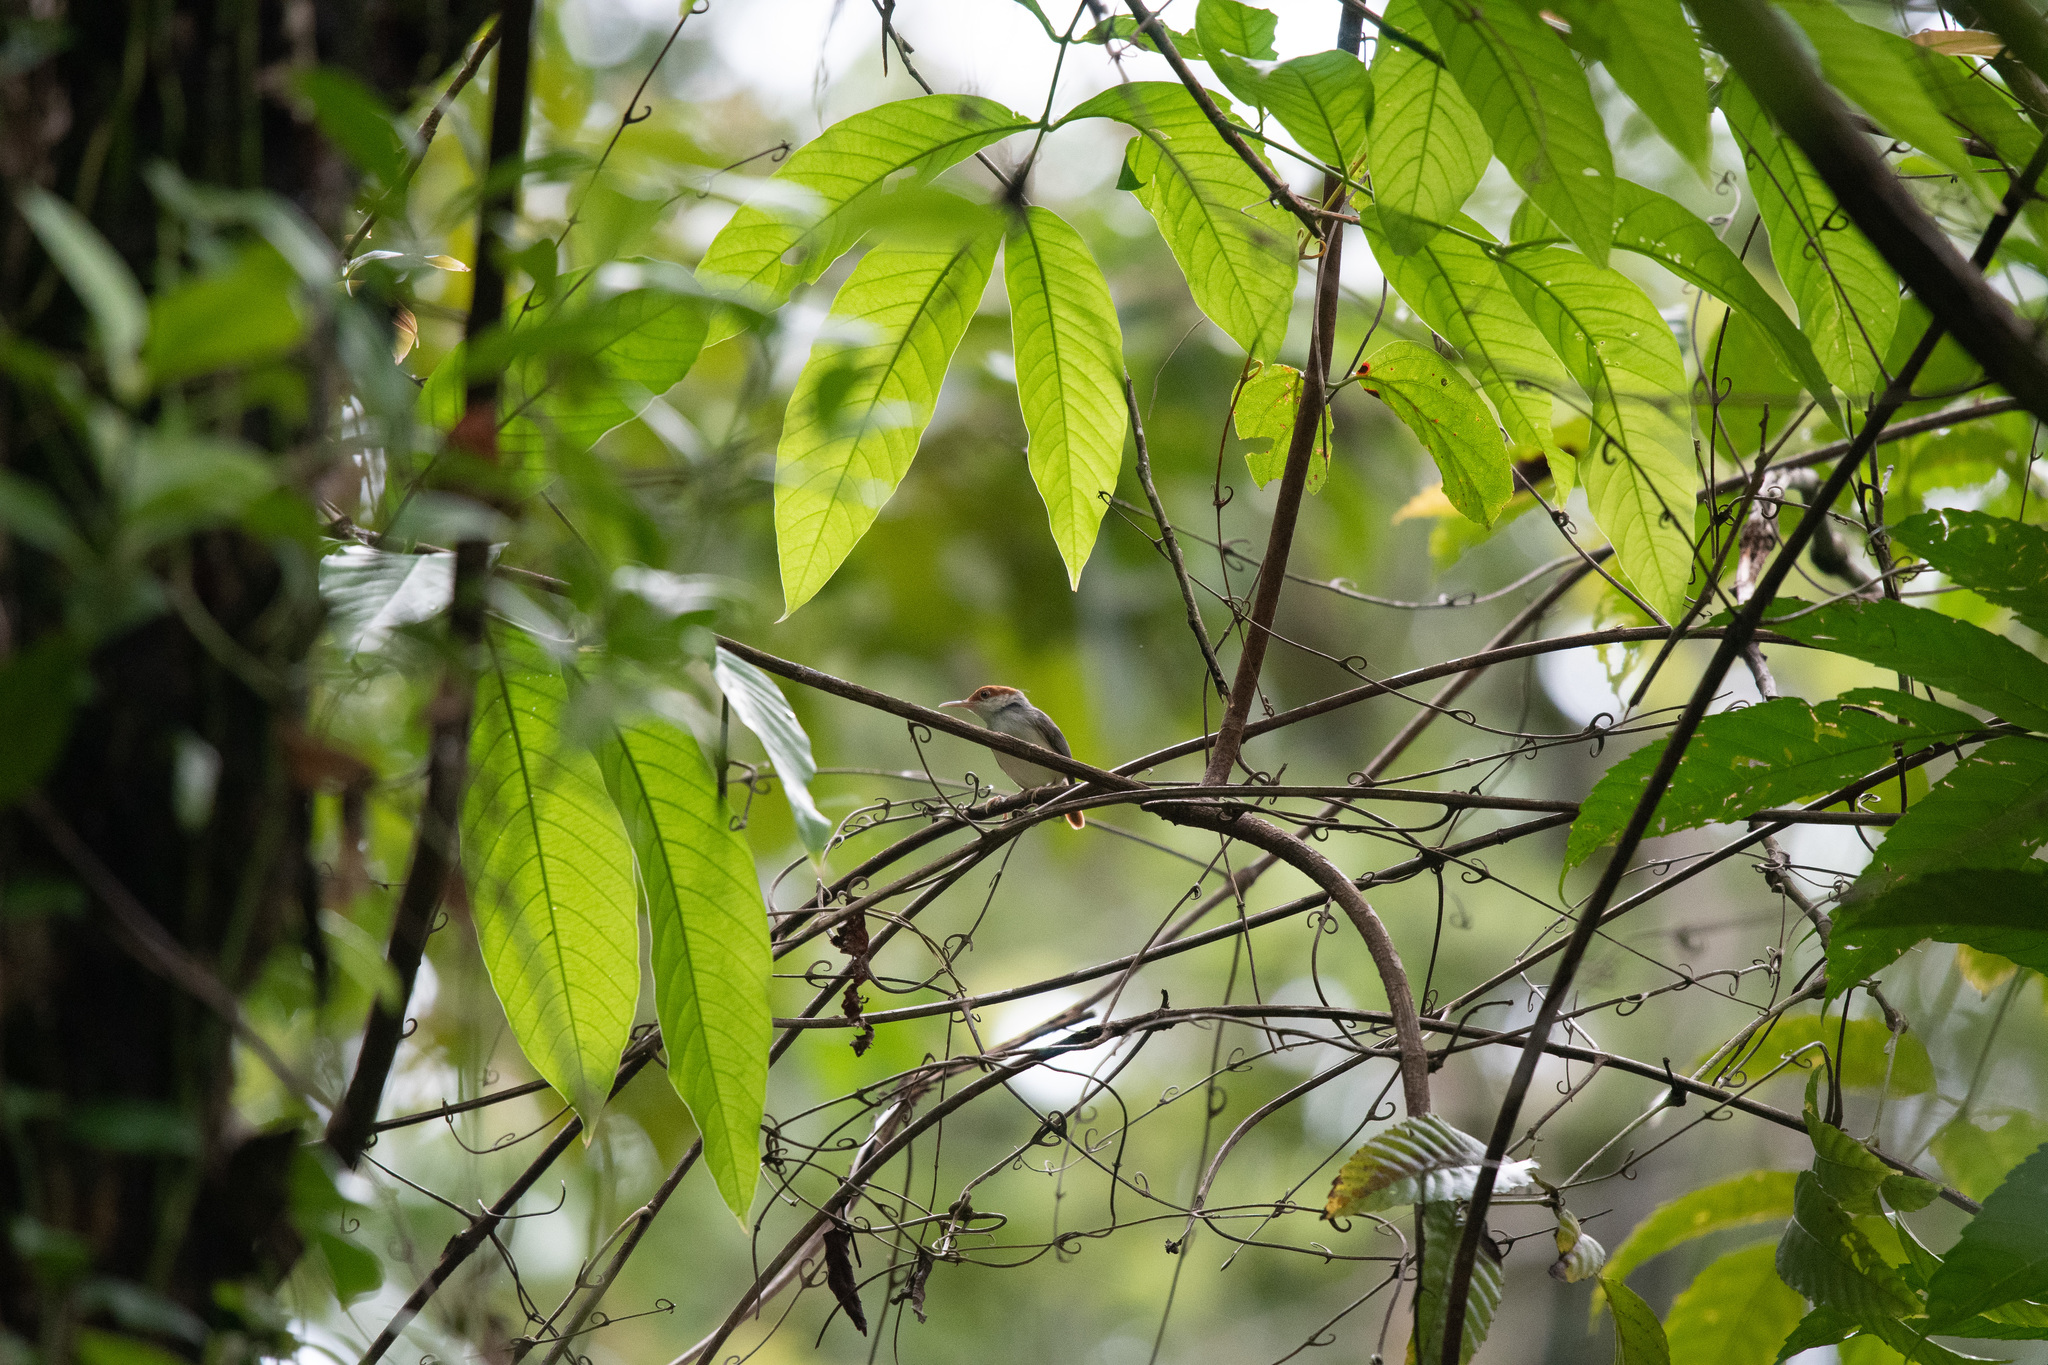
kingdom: Animalia
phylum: Chordata
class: Aves
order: Passeriformes
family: Cisticolidae
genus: Orthotomus
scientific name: Orthotomus sericeus
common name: Rufous-tailed tailorbird
